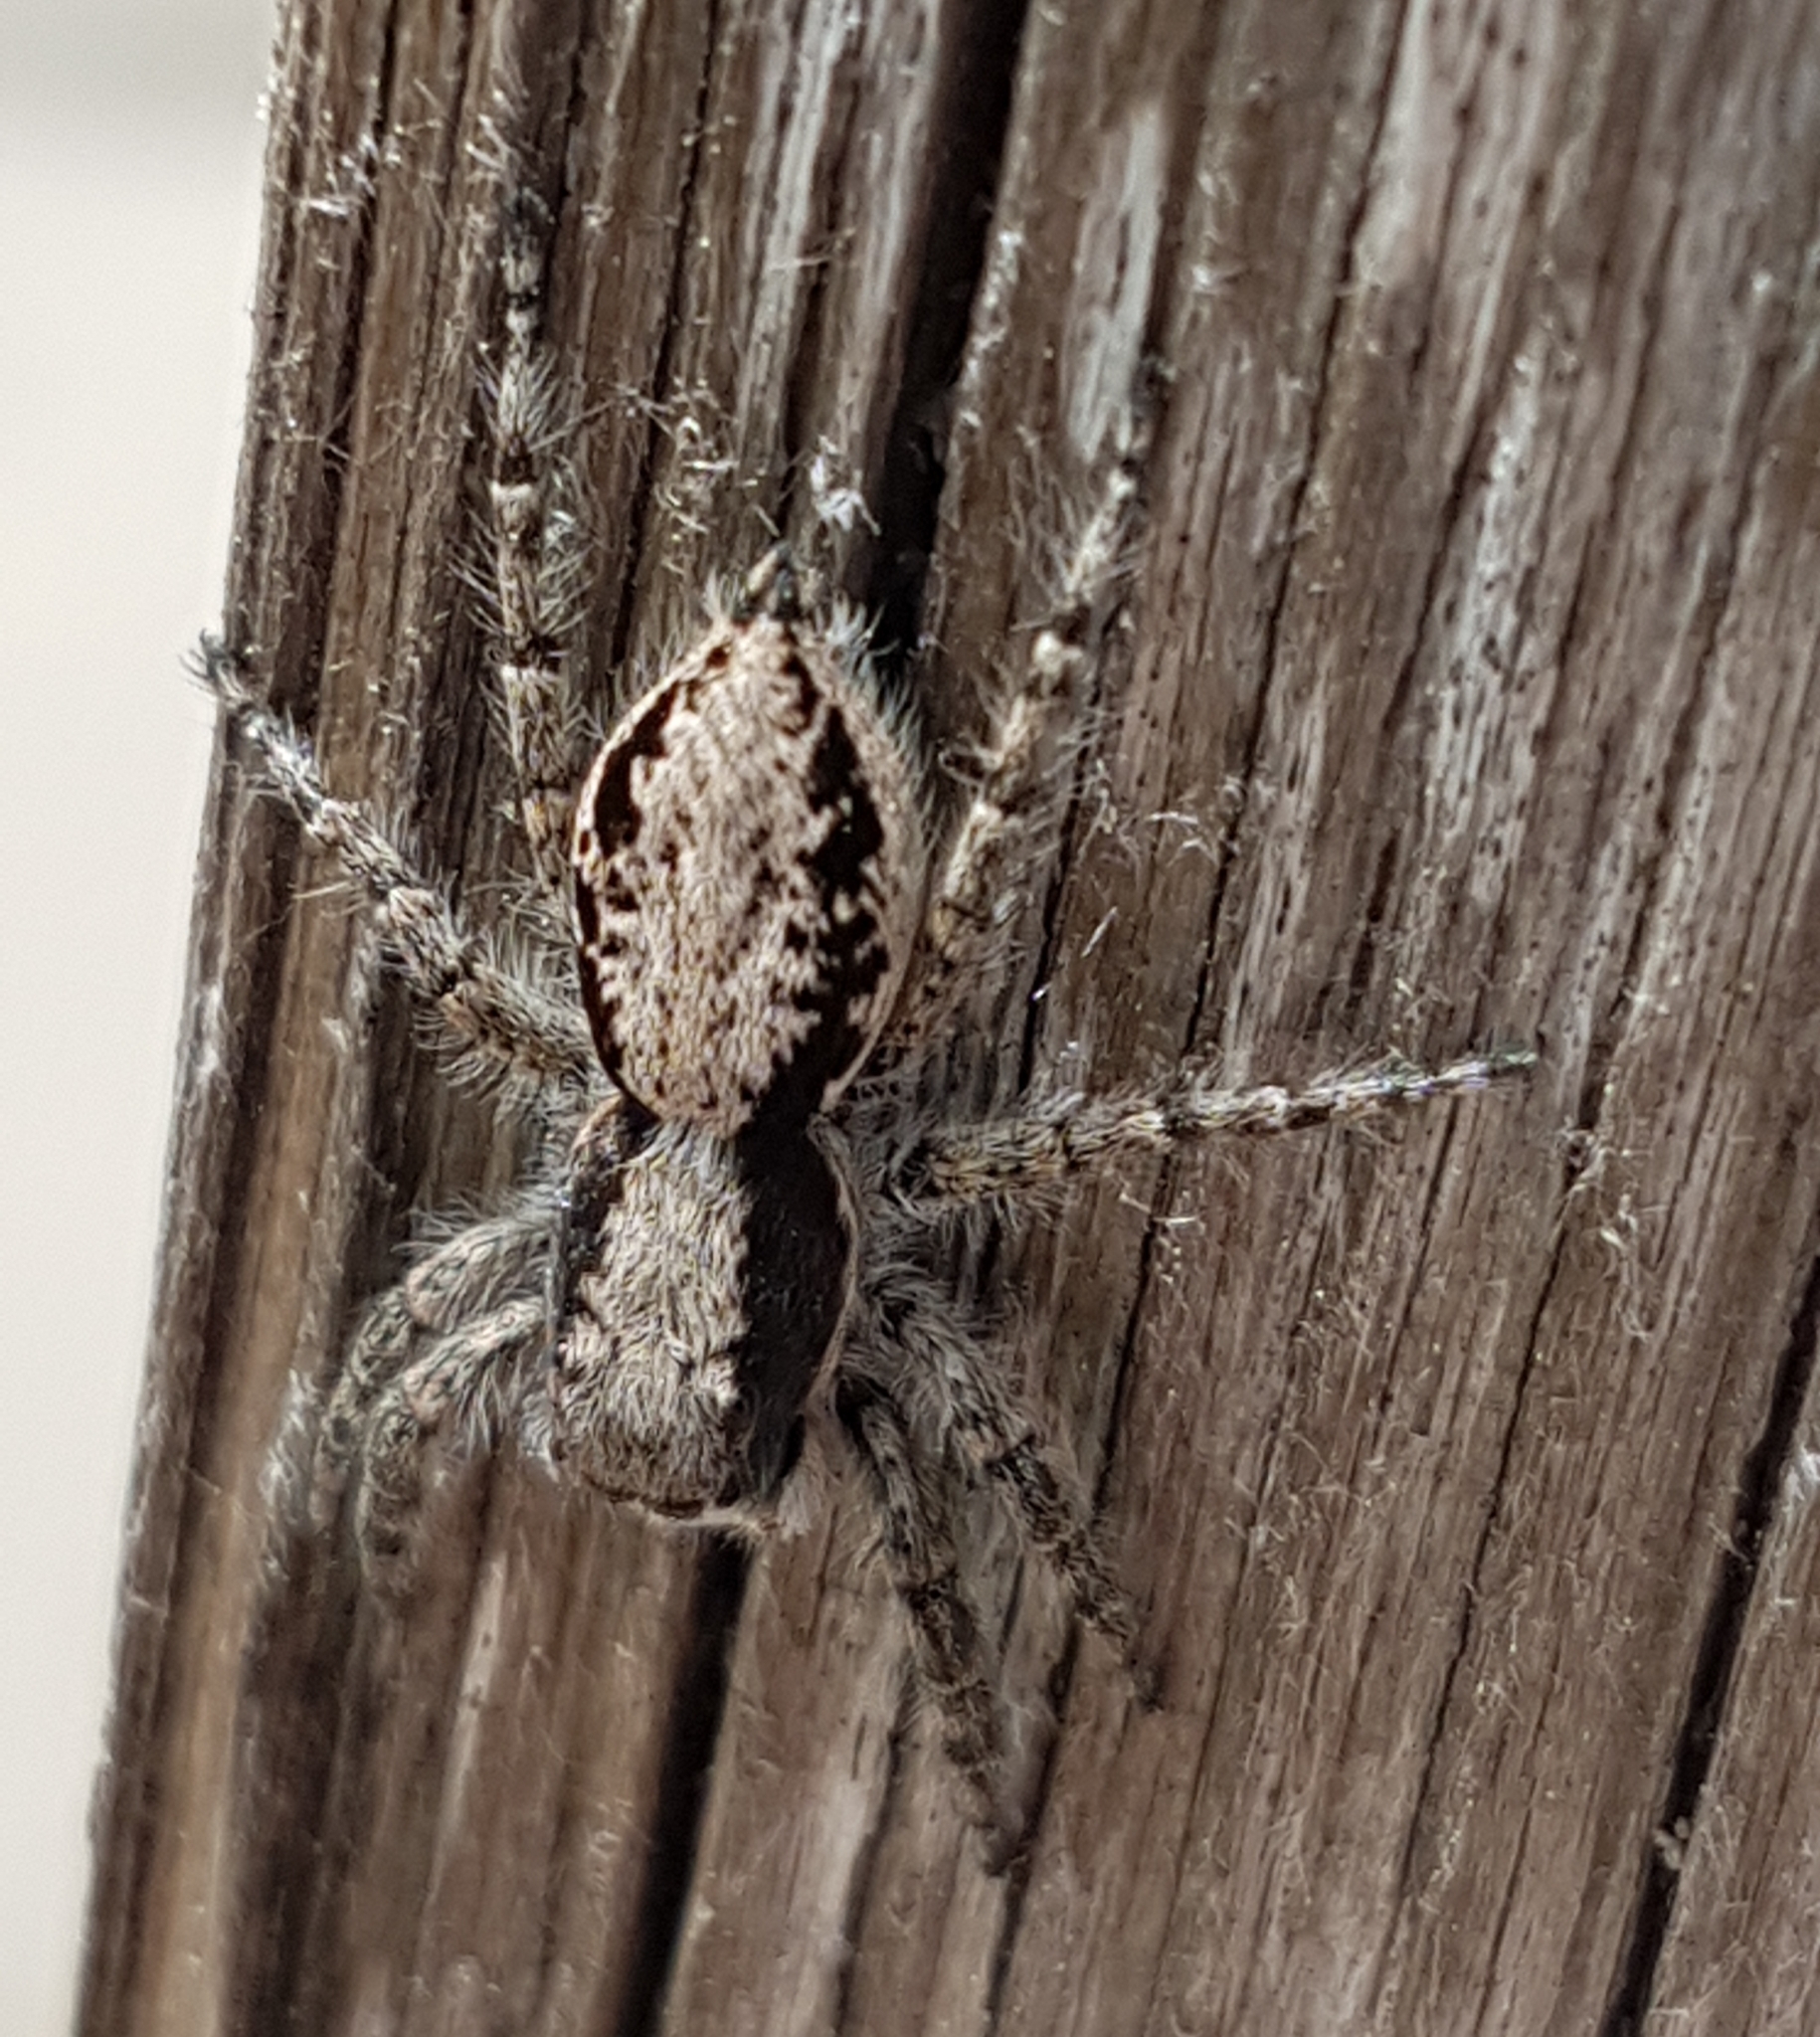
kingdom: Animalia
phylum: Arthropoda
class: Arachnida
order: Araneae
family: Salticidae
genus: Menemerus
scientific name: Menemerus taeniatus
